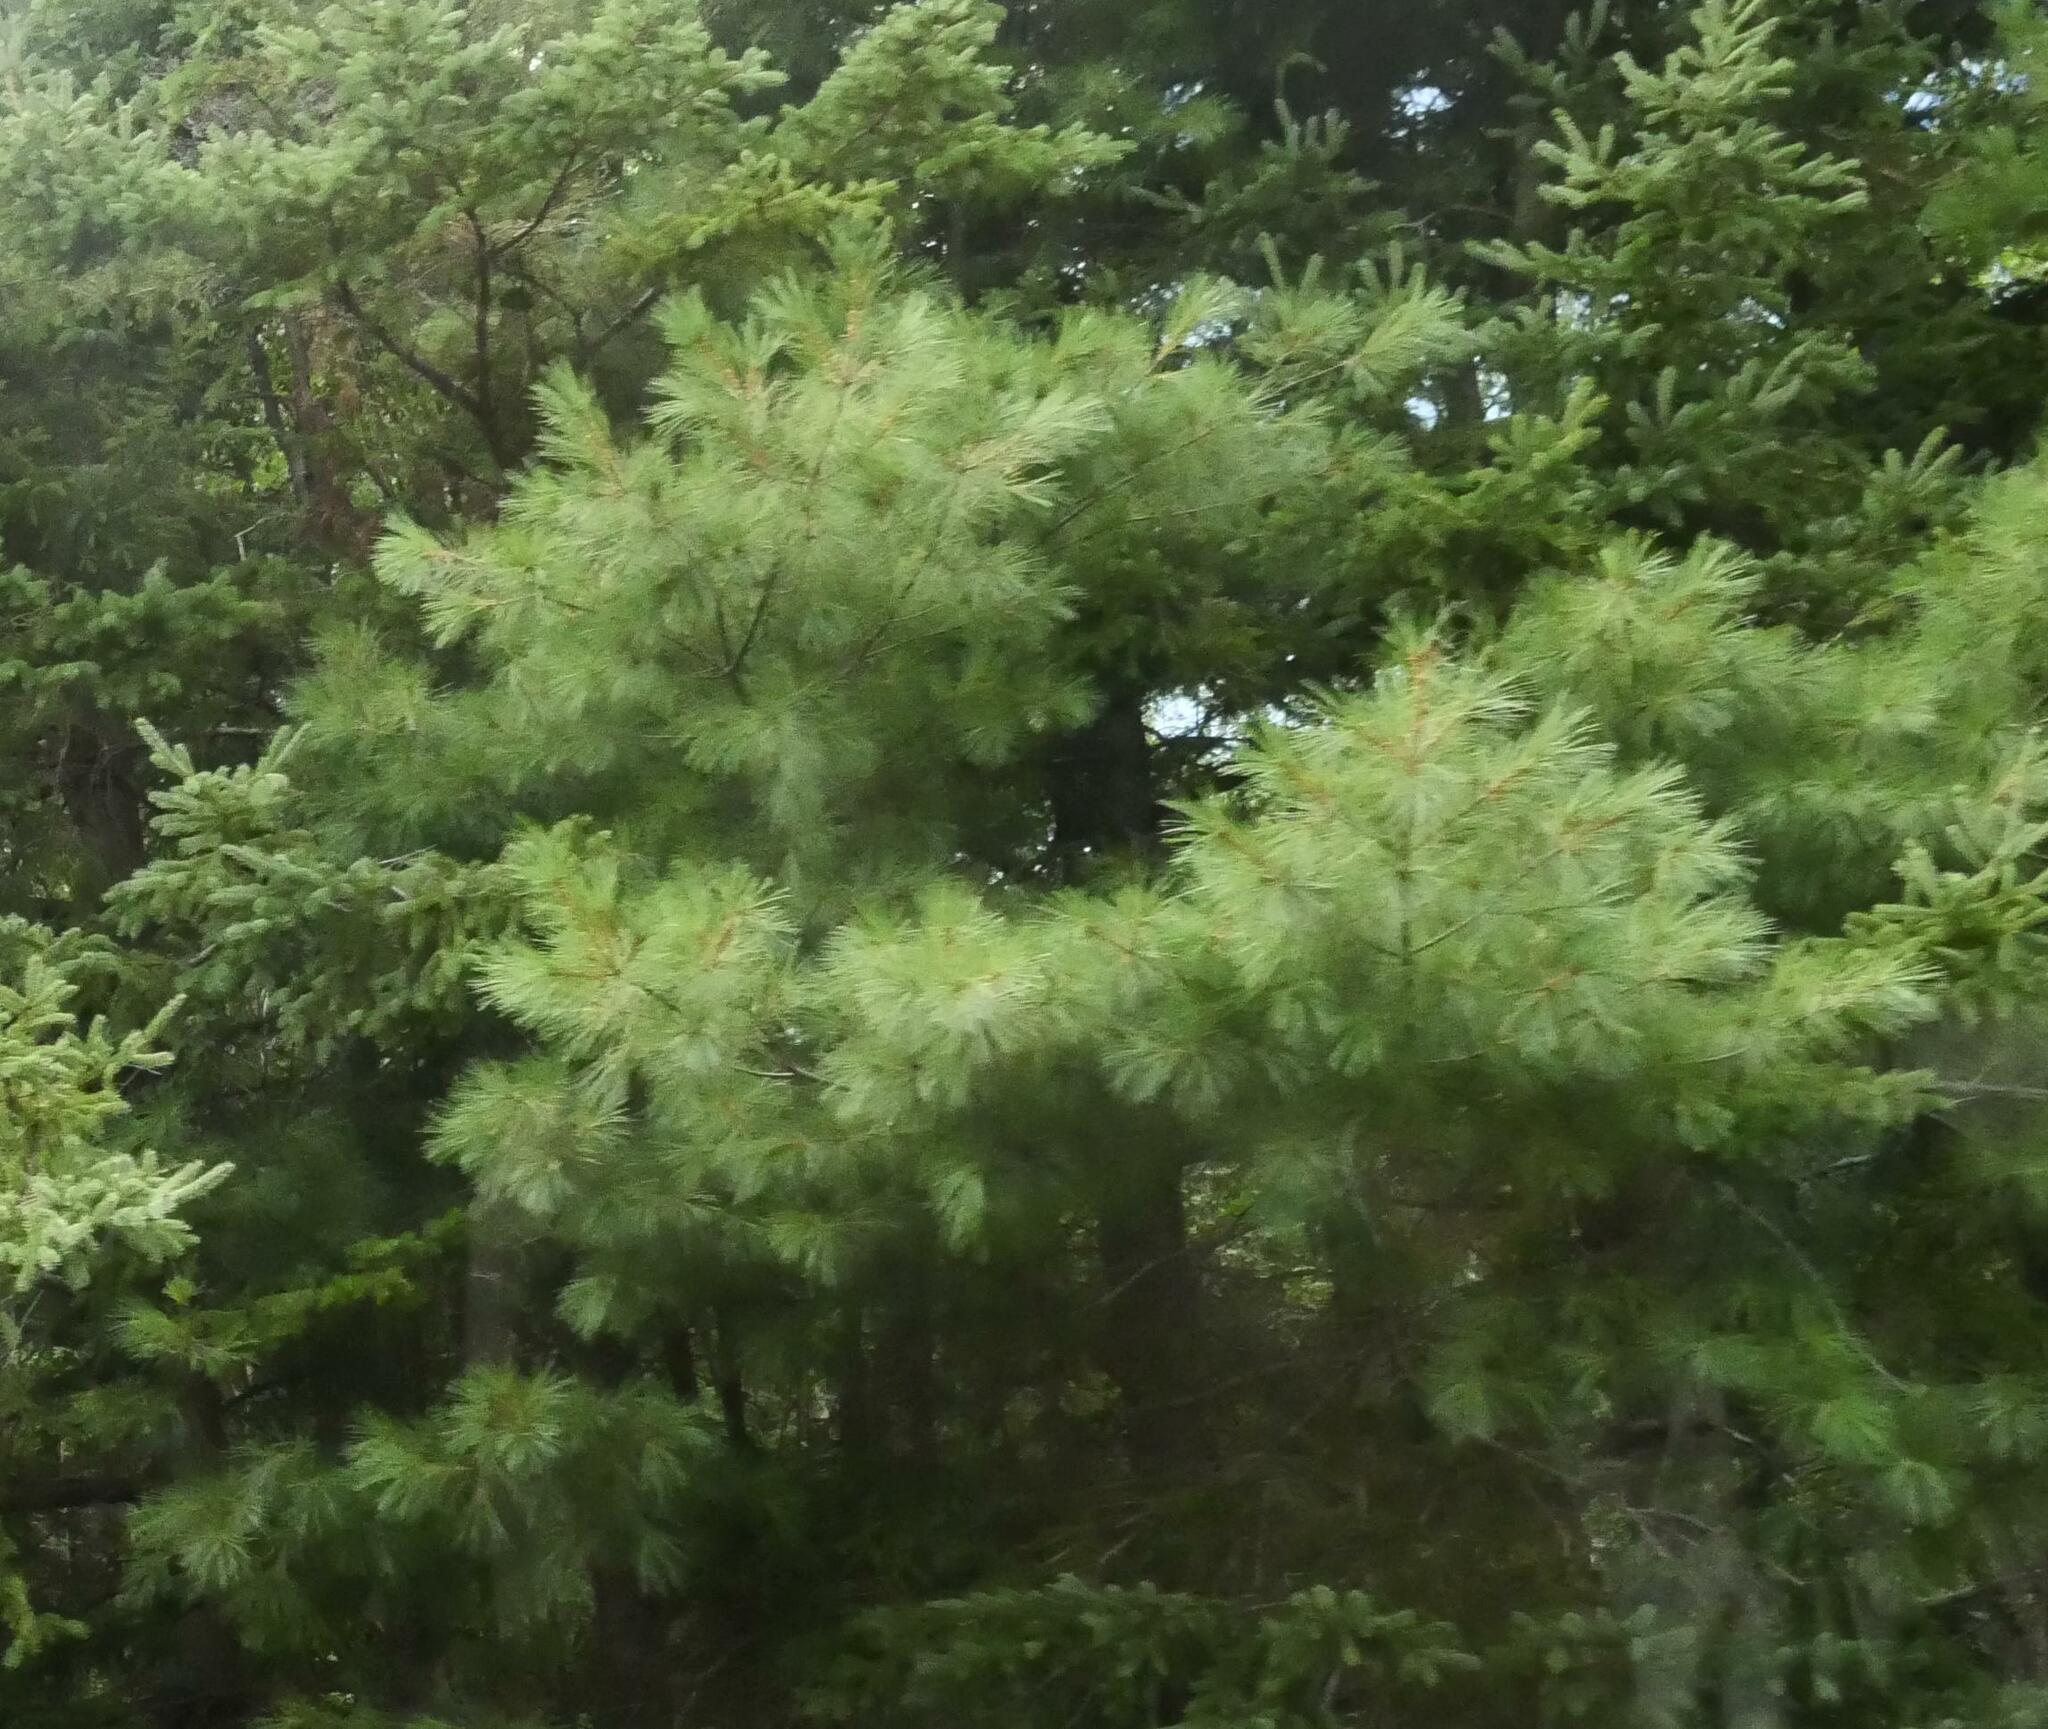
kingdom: Plantae
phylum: Tracheophyta
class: Pinopsida
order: Pinales
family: Pinaceae
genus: Pinus
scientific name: Pinus strobus
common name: Weymouth pine
